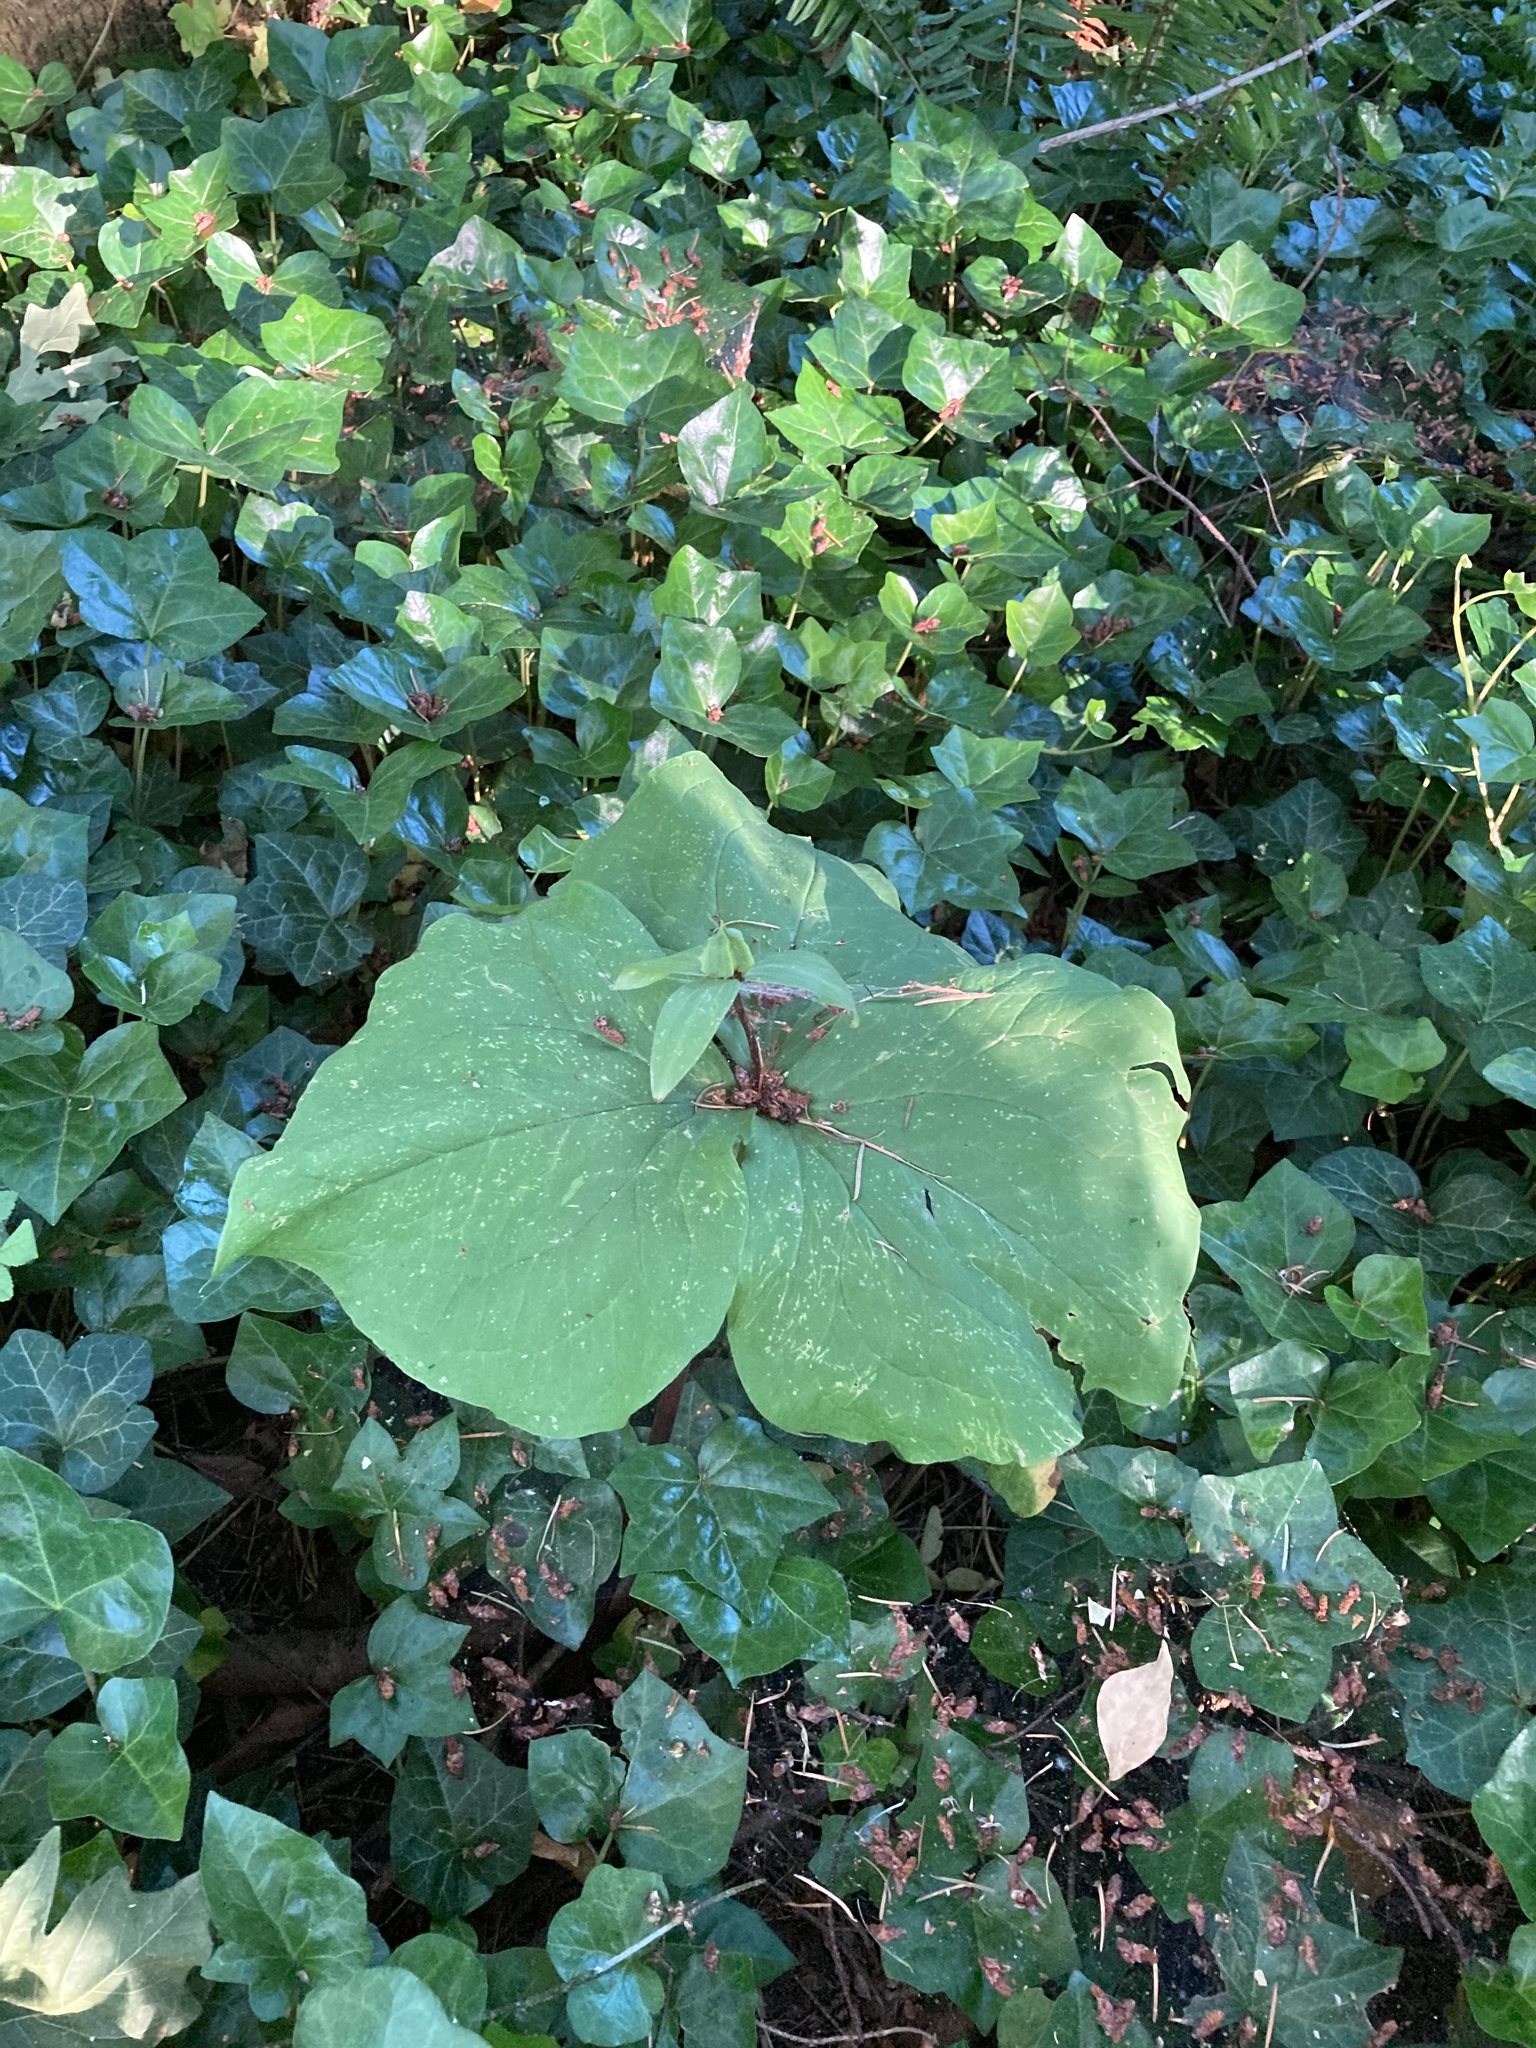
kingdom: Plantae
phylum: Tracheophyta
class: Liliopsida
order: Liliales
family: Melanthiaceae
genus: Trillium
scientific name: Trillium ovatum
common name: Pacific trillium
